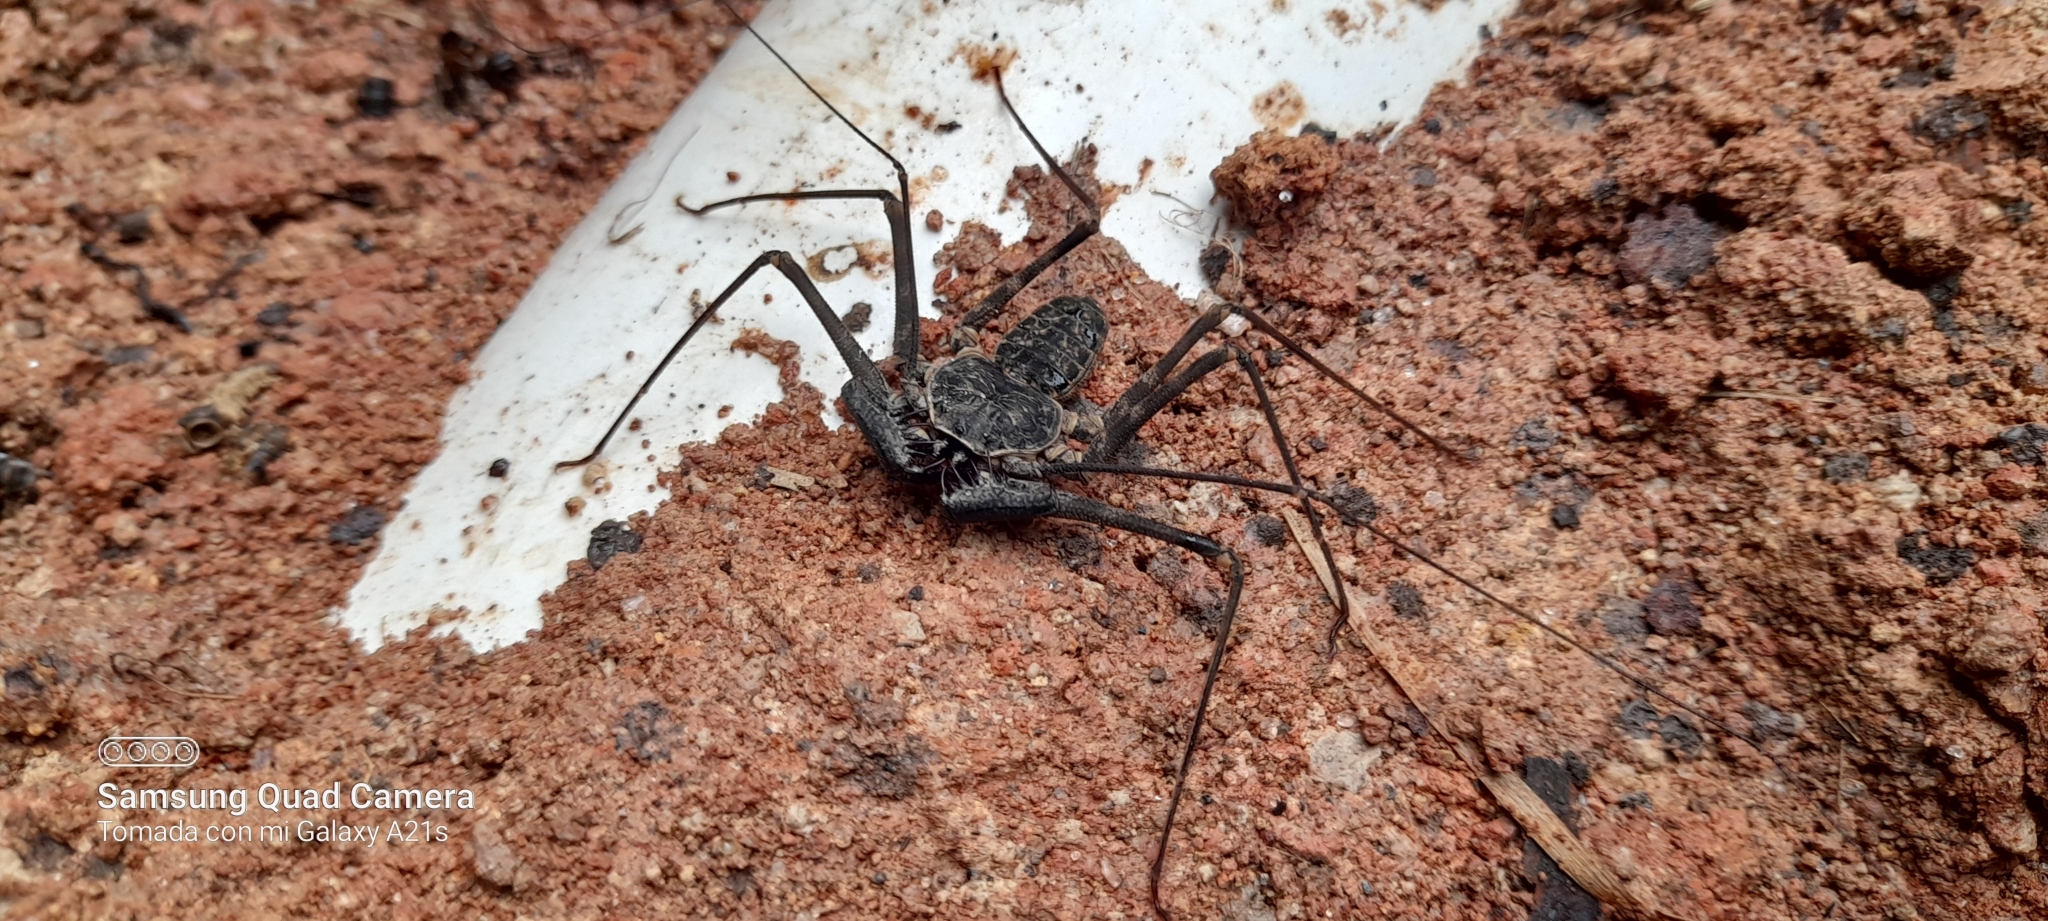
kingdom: Animalia
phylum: Arthropoda
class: Arachnida
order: Amblypygi
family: Phrynidae
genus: Paraphrynus
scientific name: Paraphrynus laevifrons
